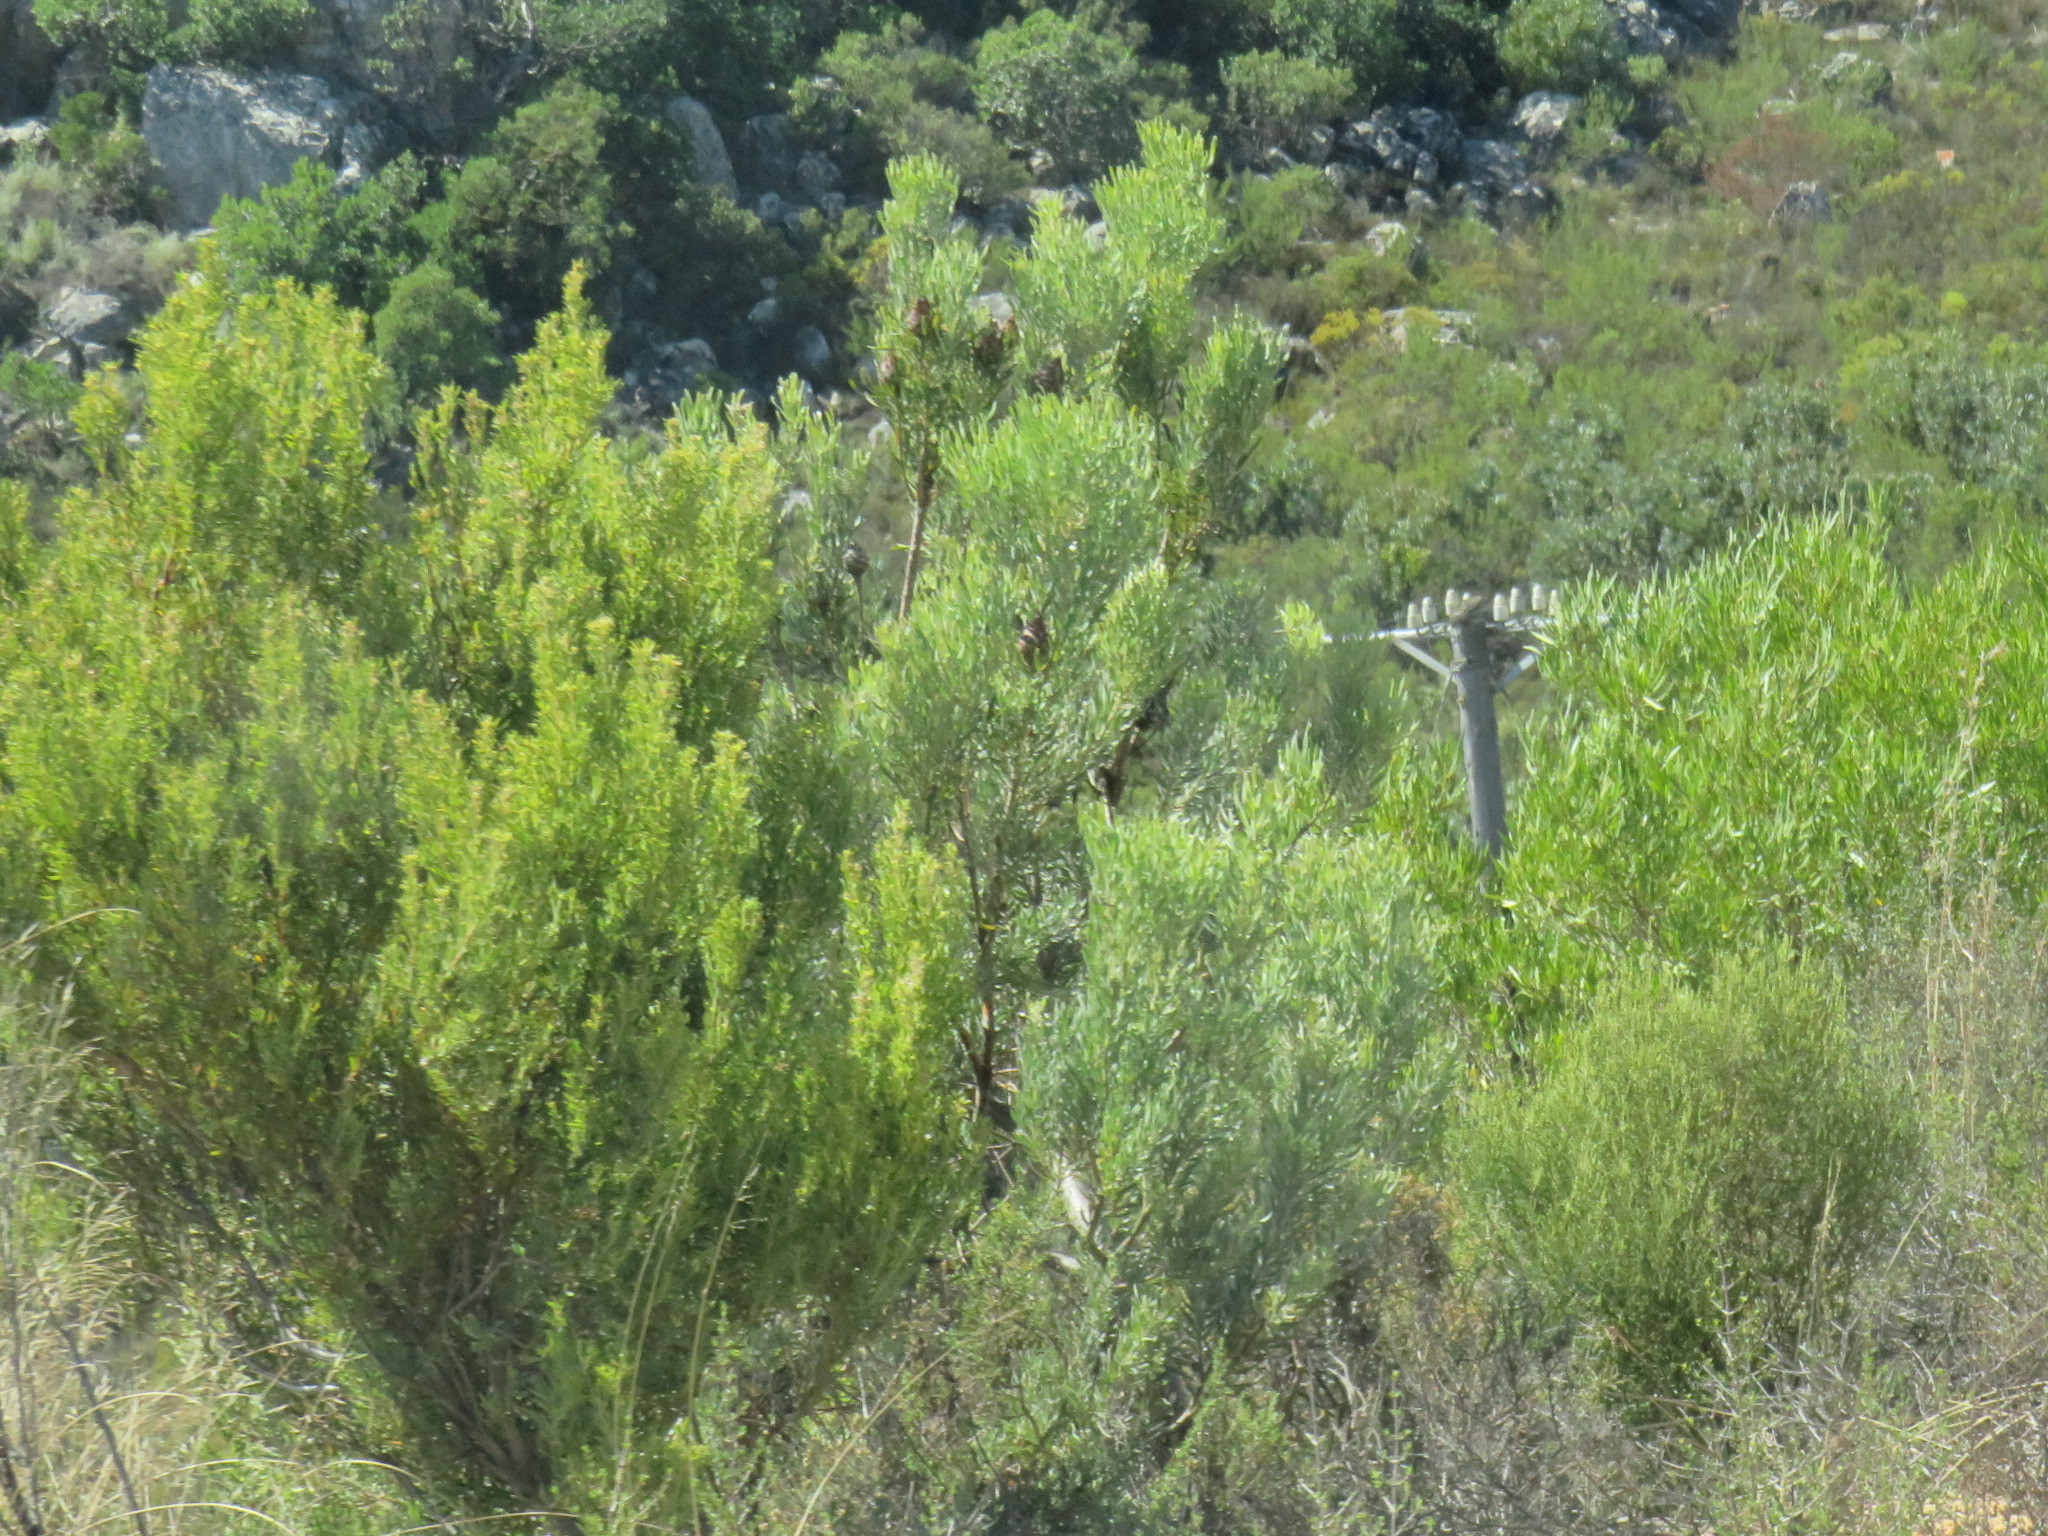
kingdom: Plantae
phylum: Tracheophyta
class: Magnoliopsida
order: Proteales
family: Proteaceae
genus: Leucadendron
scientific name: Leucadendron rubrum
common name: Spinning top
